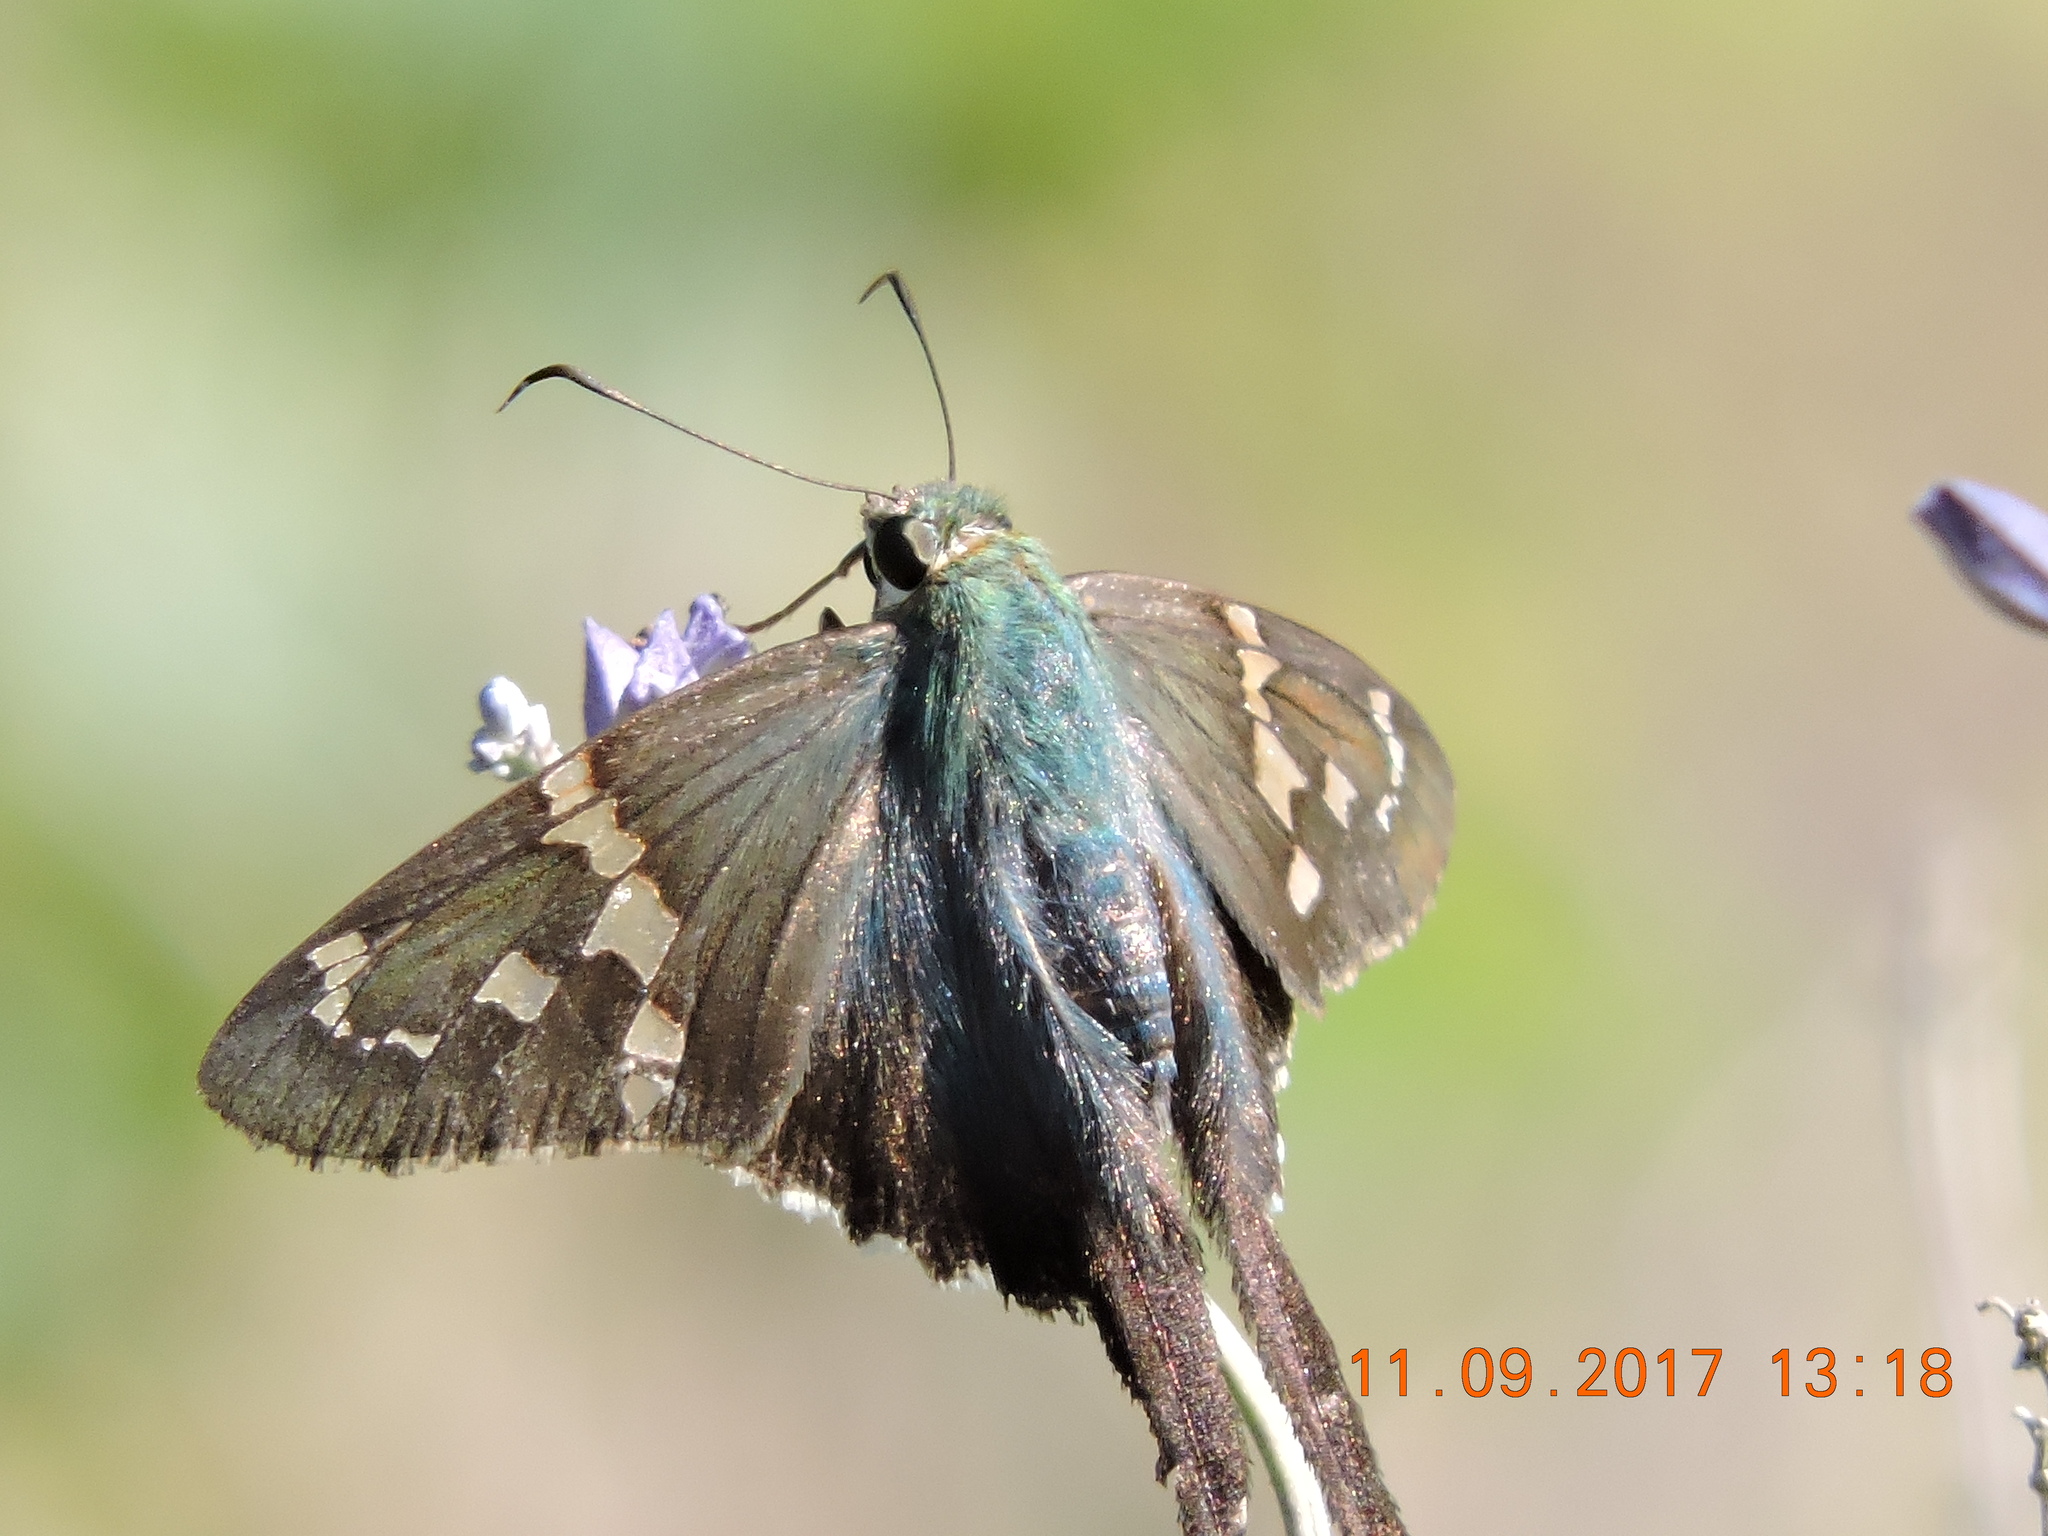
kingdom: Animalia
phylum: Arthropoda
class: Insecta
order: Lepidoptera
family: Hesperiidae
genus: Urbanus
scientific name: Urbanus proteus
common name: Long-tailed skipper
